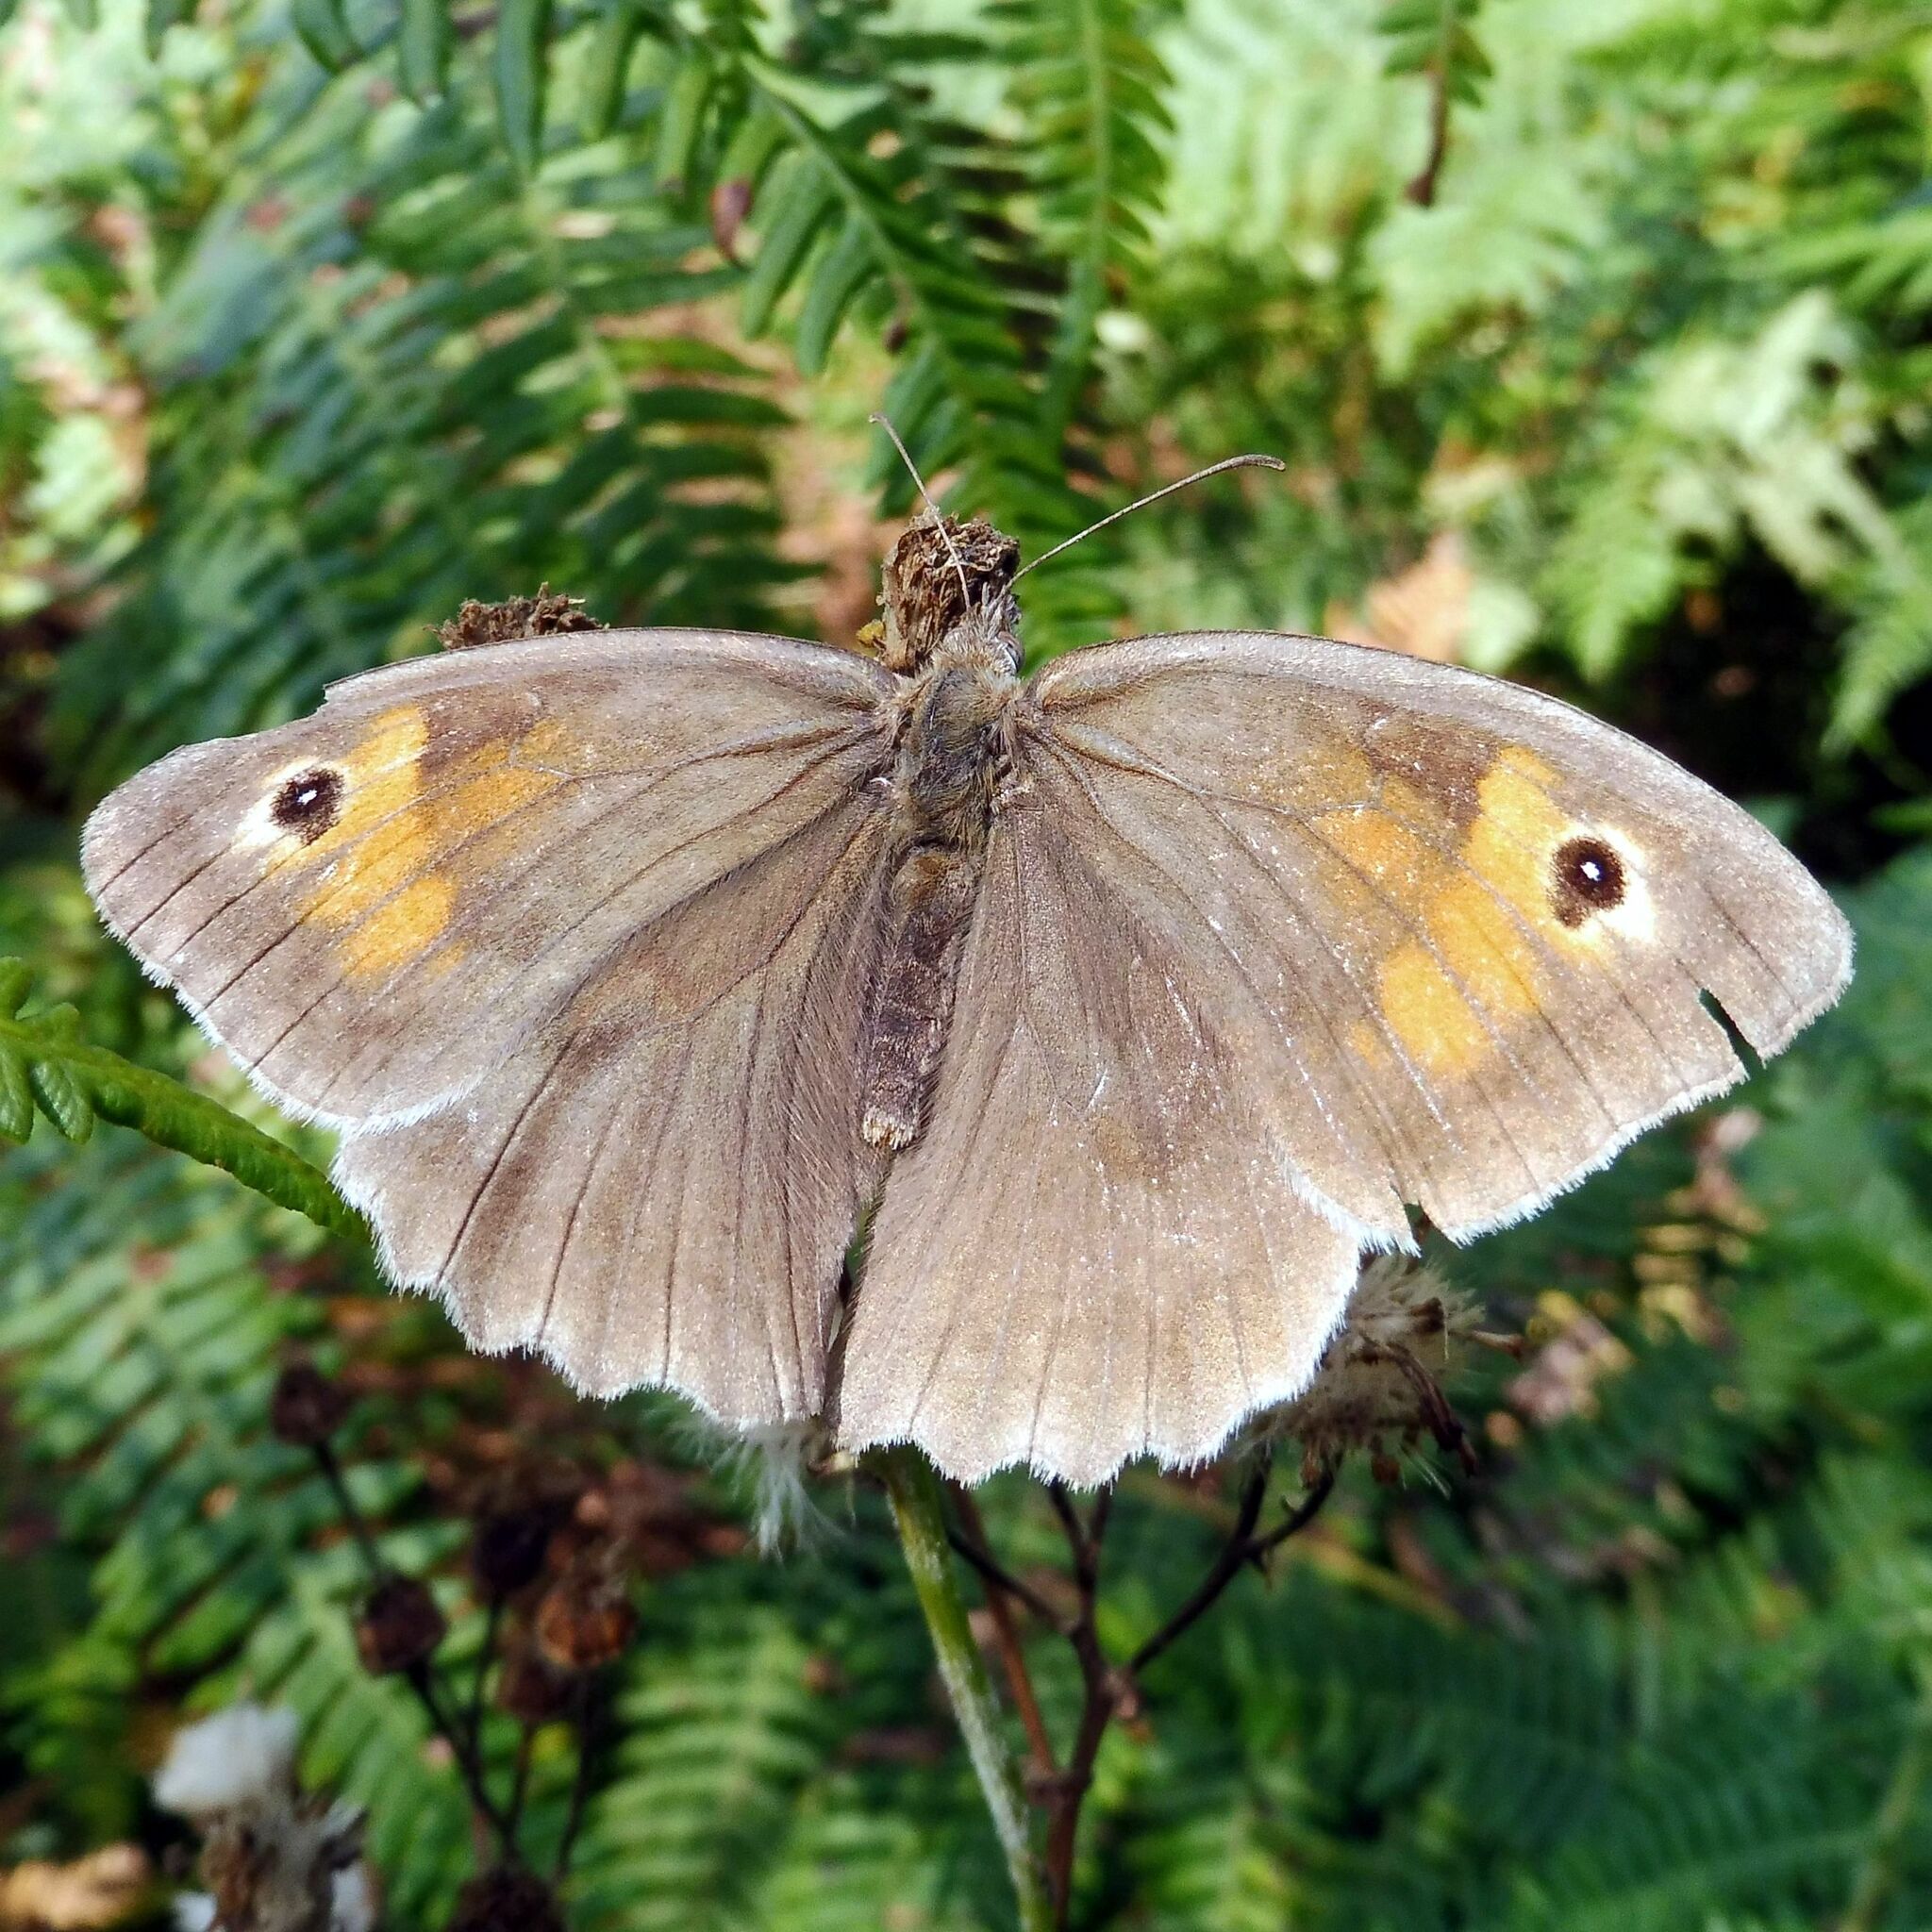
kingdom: Animalia
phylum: Arthropoda
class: Insecta
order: Lepidoptera
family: Nymphalidae
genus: Maniola
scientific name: Maniola jurtina
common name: Meadow brown
